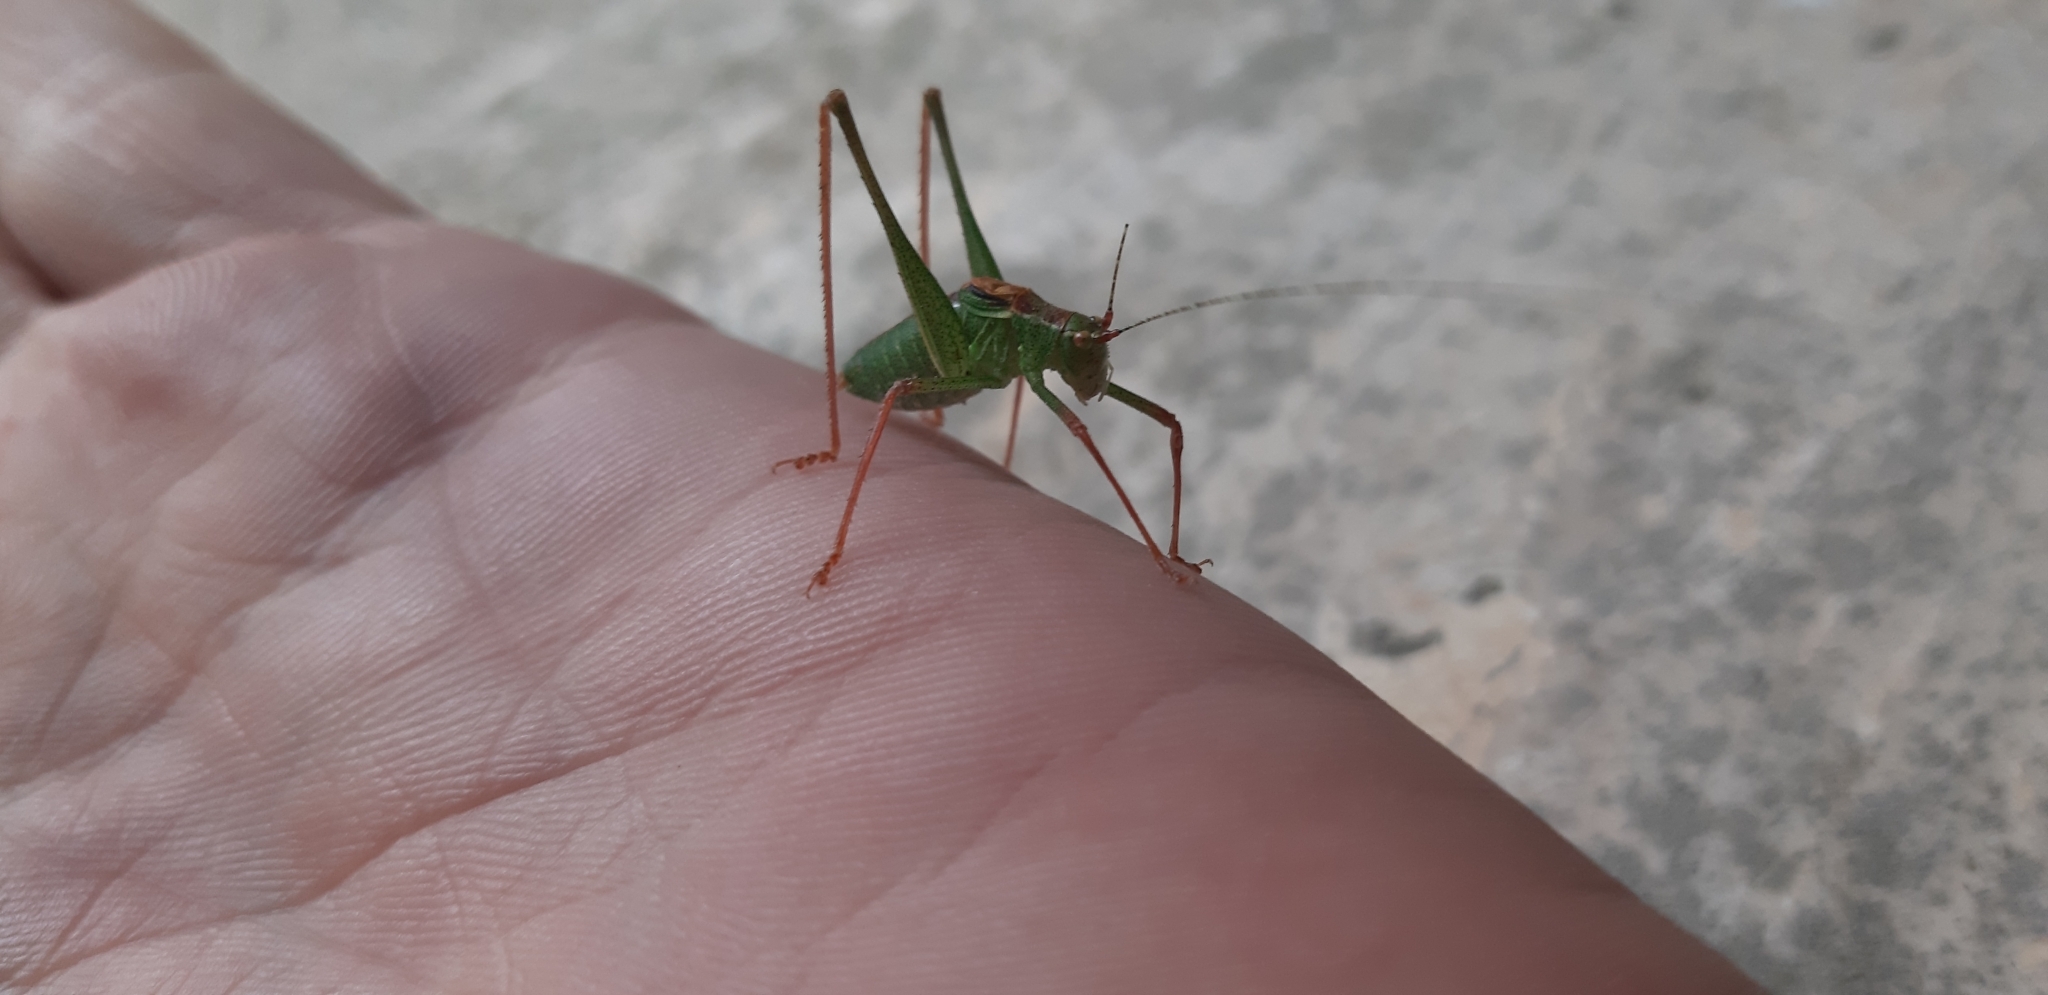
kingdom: Animalia
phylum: Arthropoda
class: Insecta
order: Orthoptera
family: Tettigoniidae
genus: Leptophyes
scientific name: Leptophyes punctatissima
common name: Speckled bush-cricket
